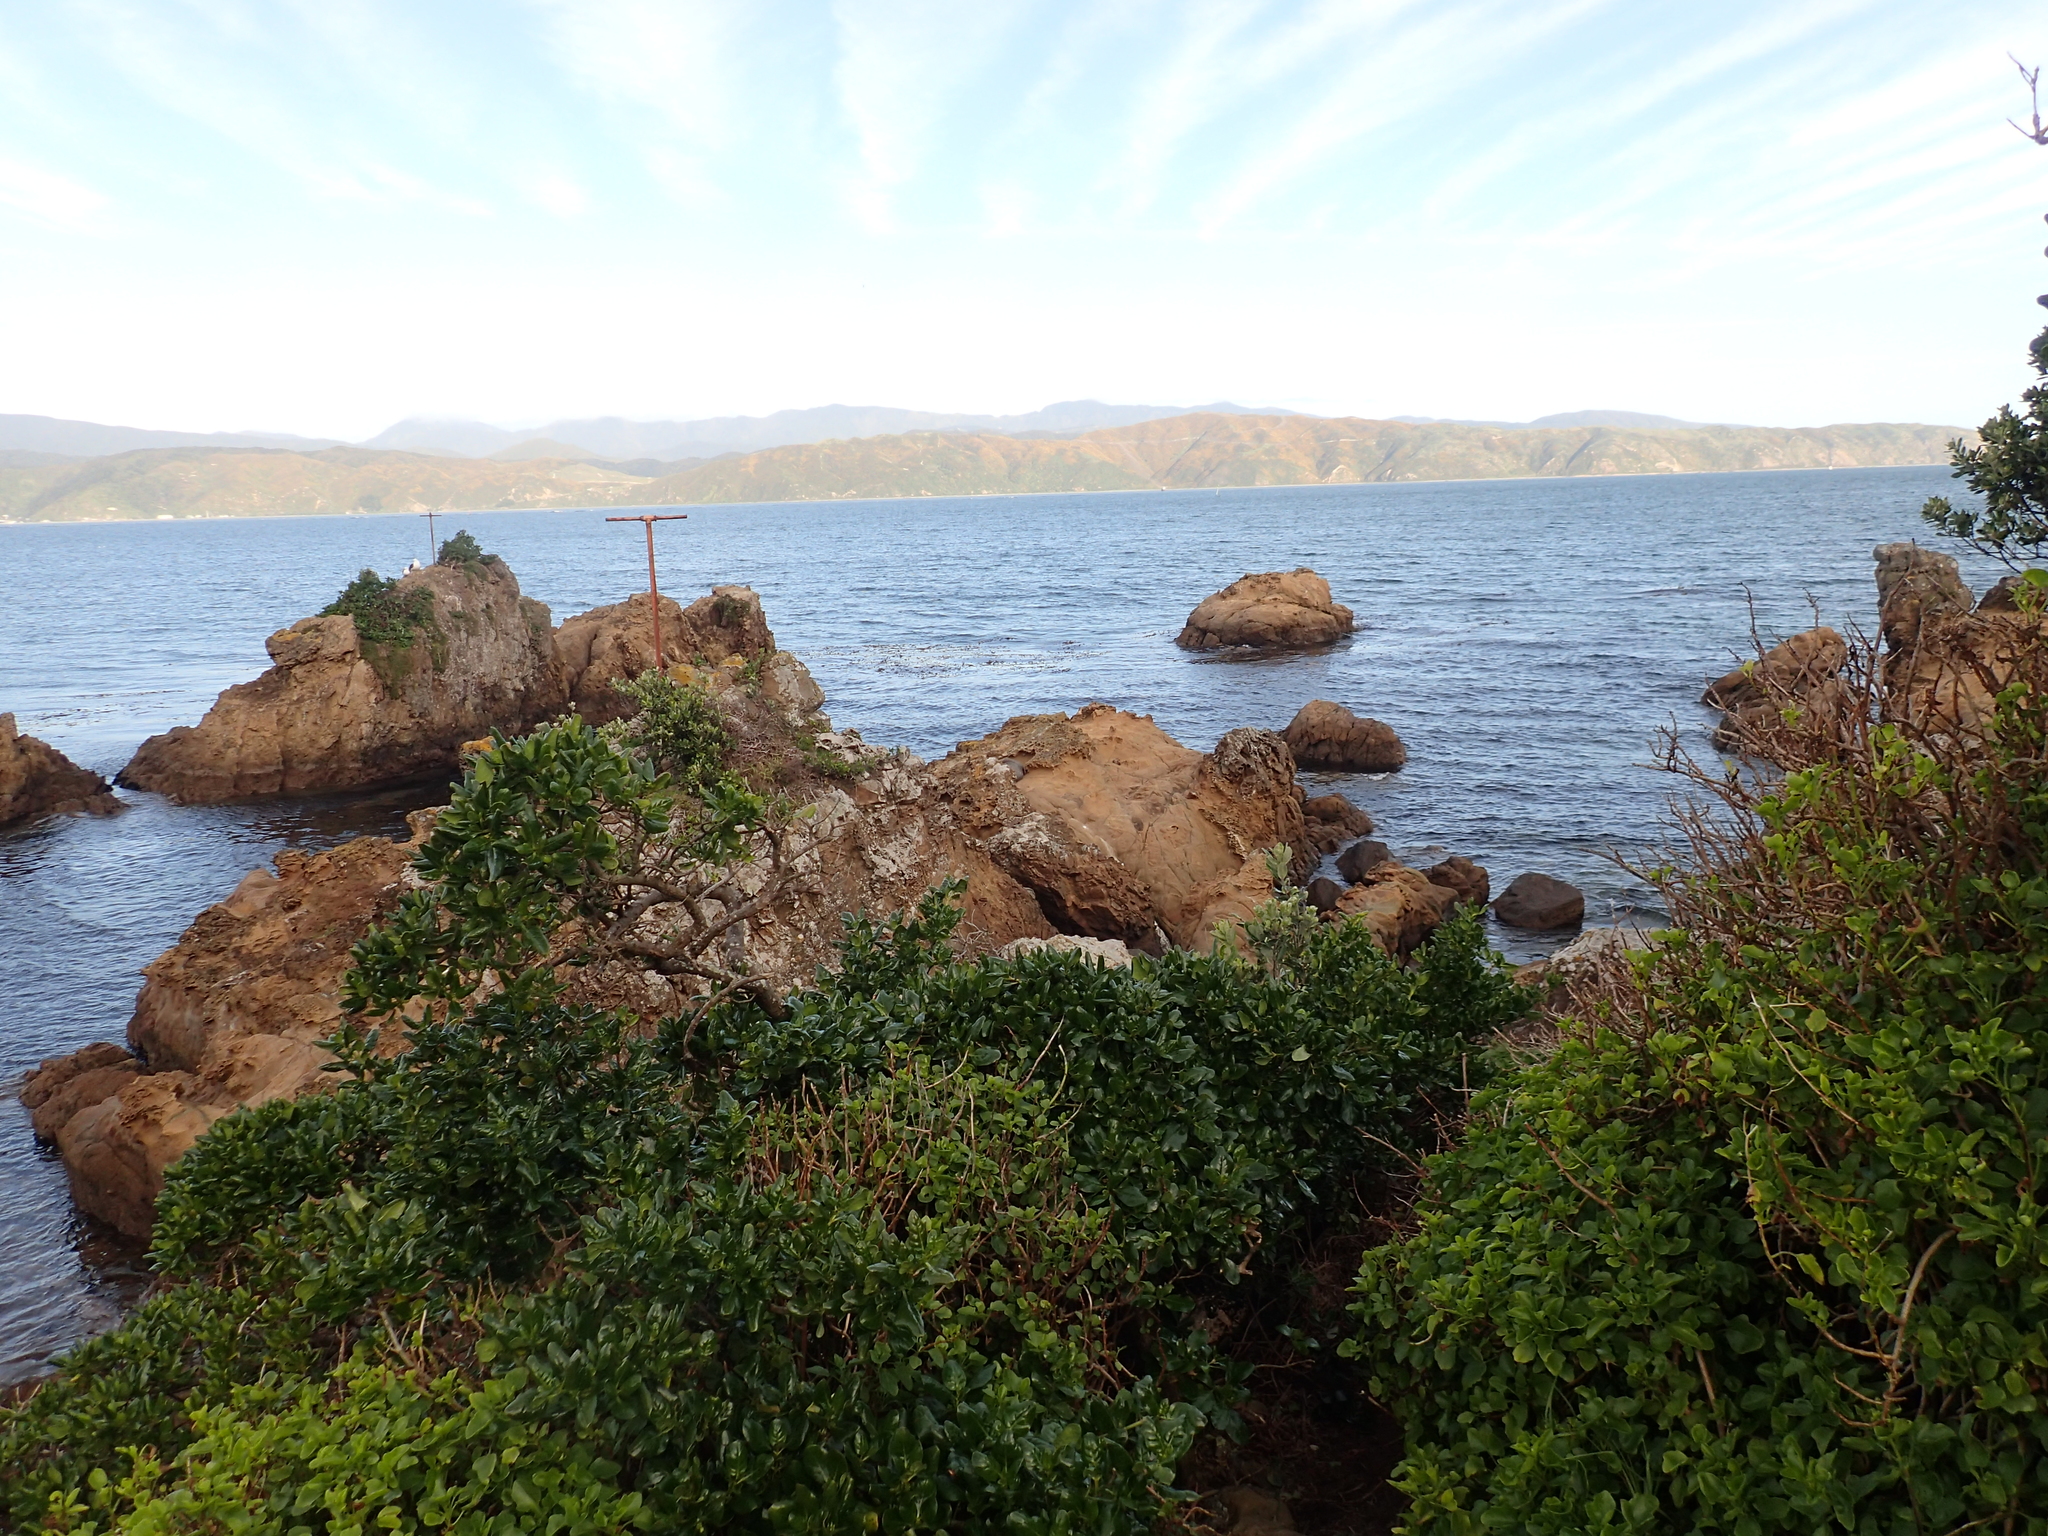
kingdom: Animalia
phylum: Chordata
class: Mammalia
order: Carnivora
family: Otariidae
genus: Arctocephalus
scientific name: Arctocephalus forsteri
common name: New zealand fur seal
